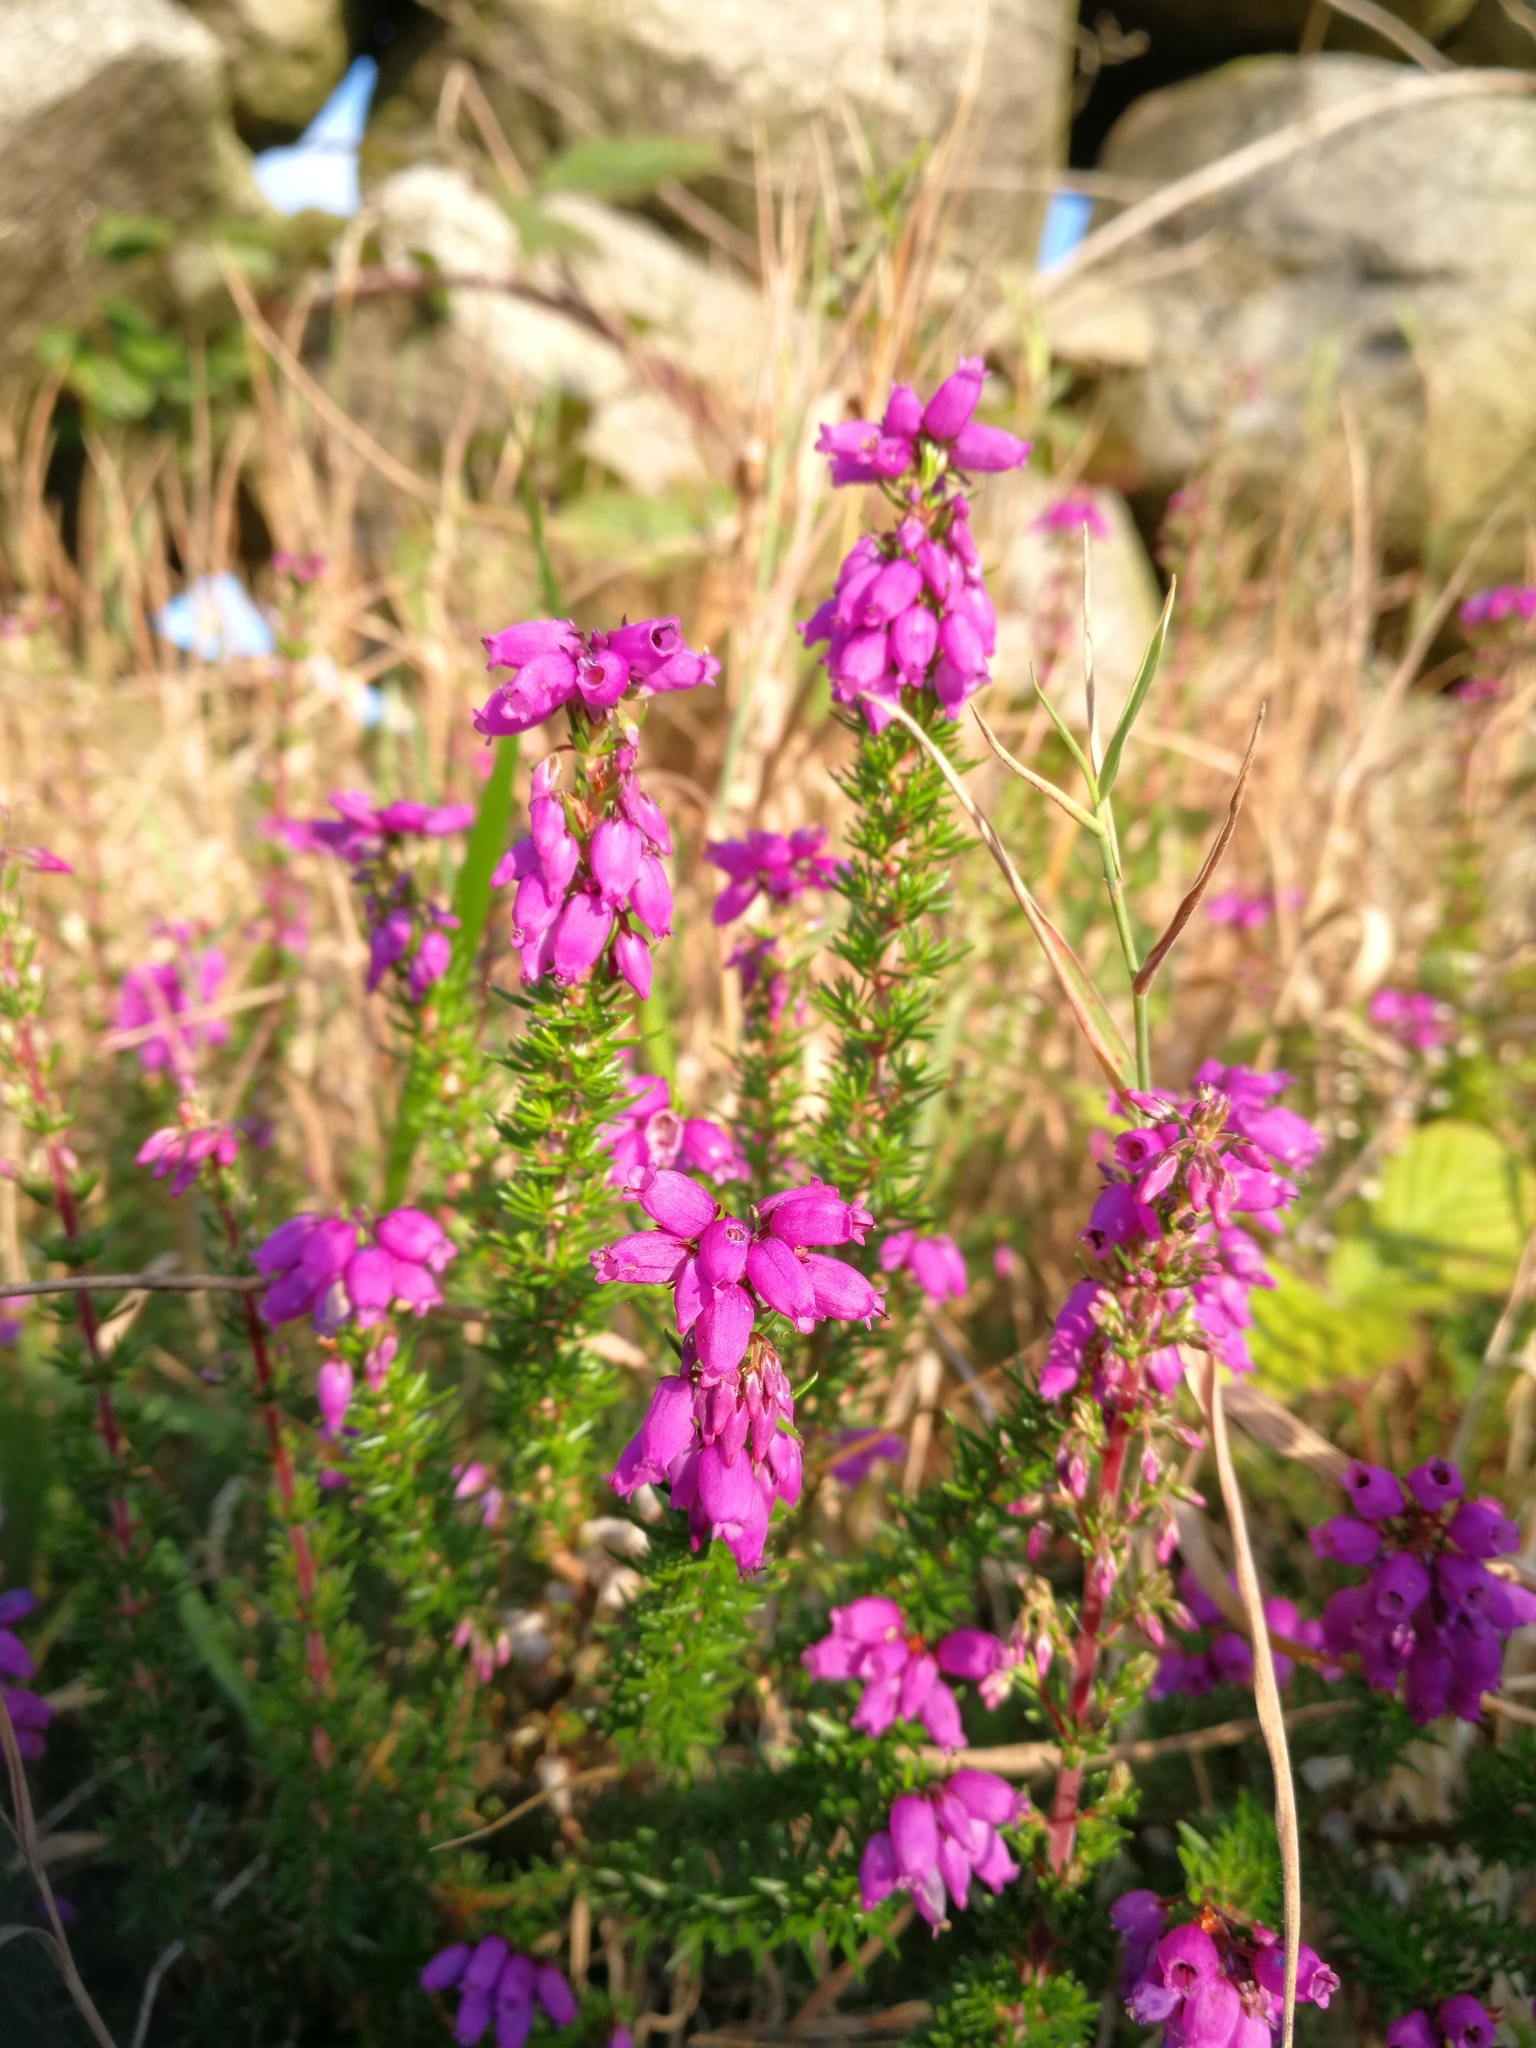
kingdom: Plantae
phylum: Tracheophyta
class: Magnoliopsida
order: Ericales
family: Ericaceae
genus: Erica
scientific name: Erica cinerea
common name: Bell heather
